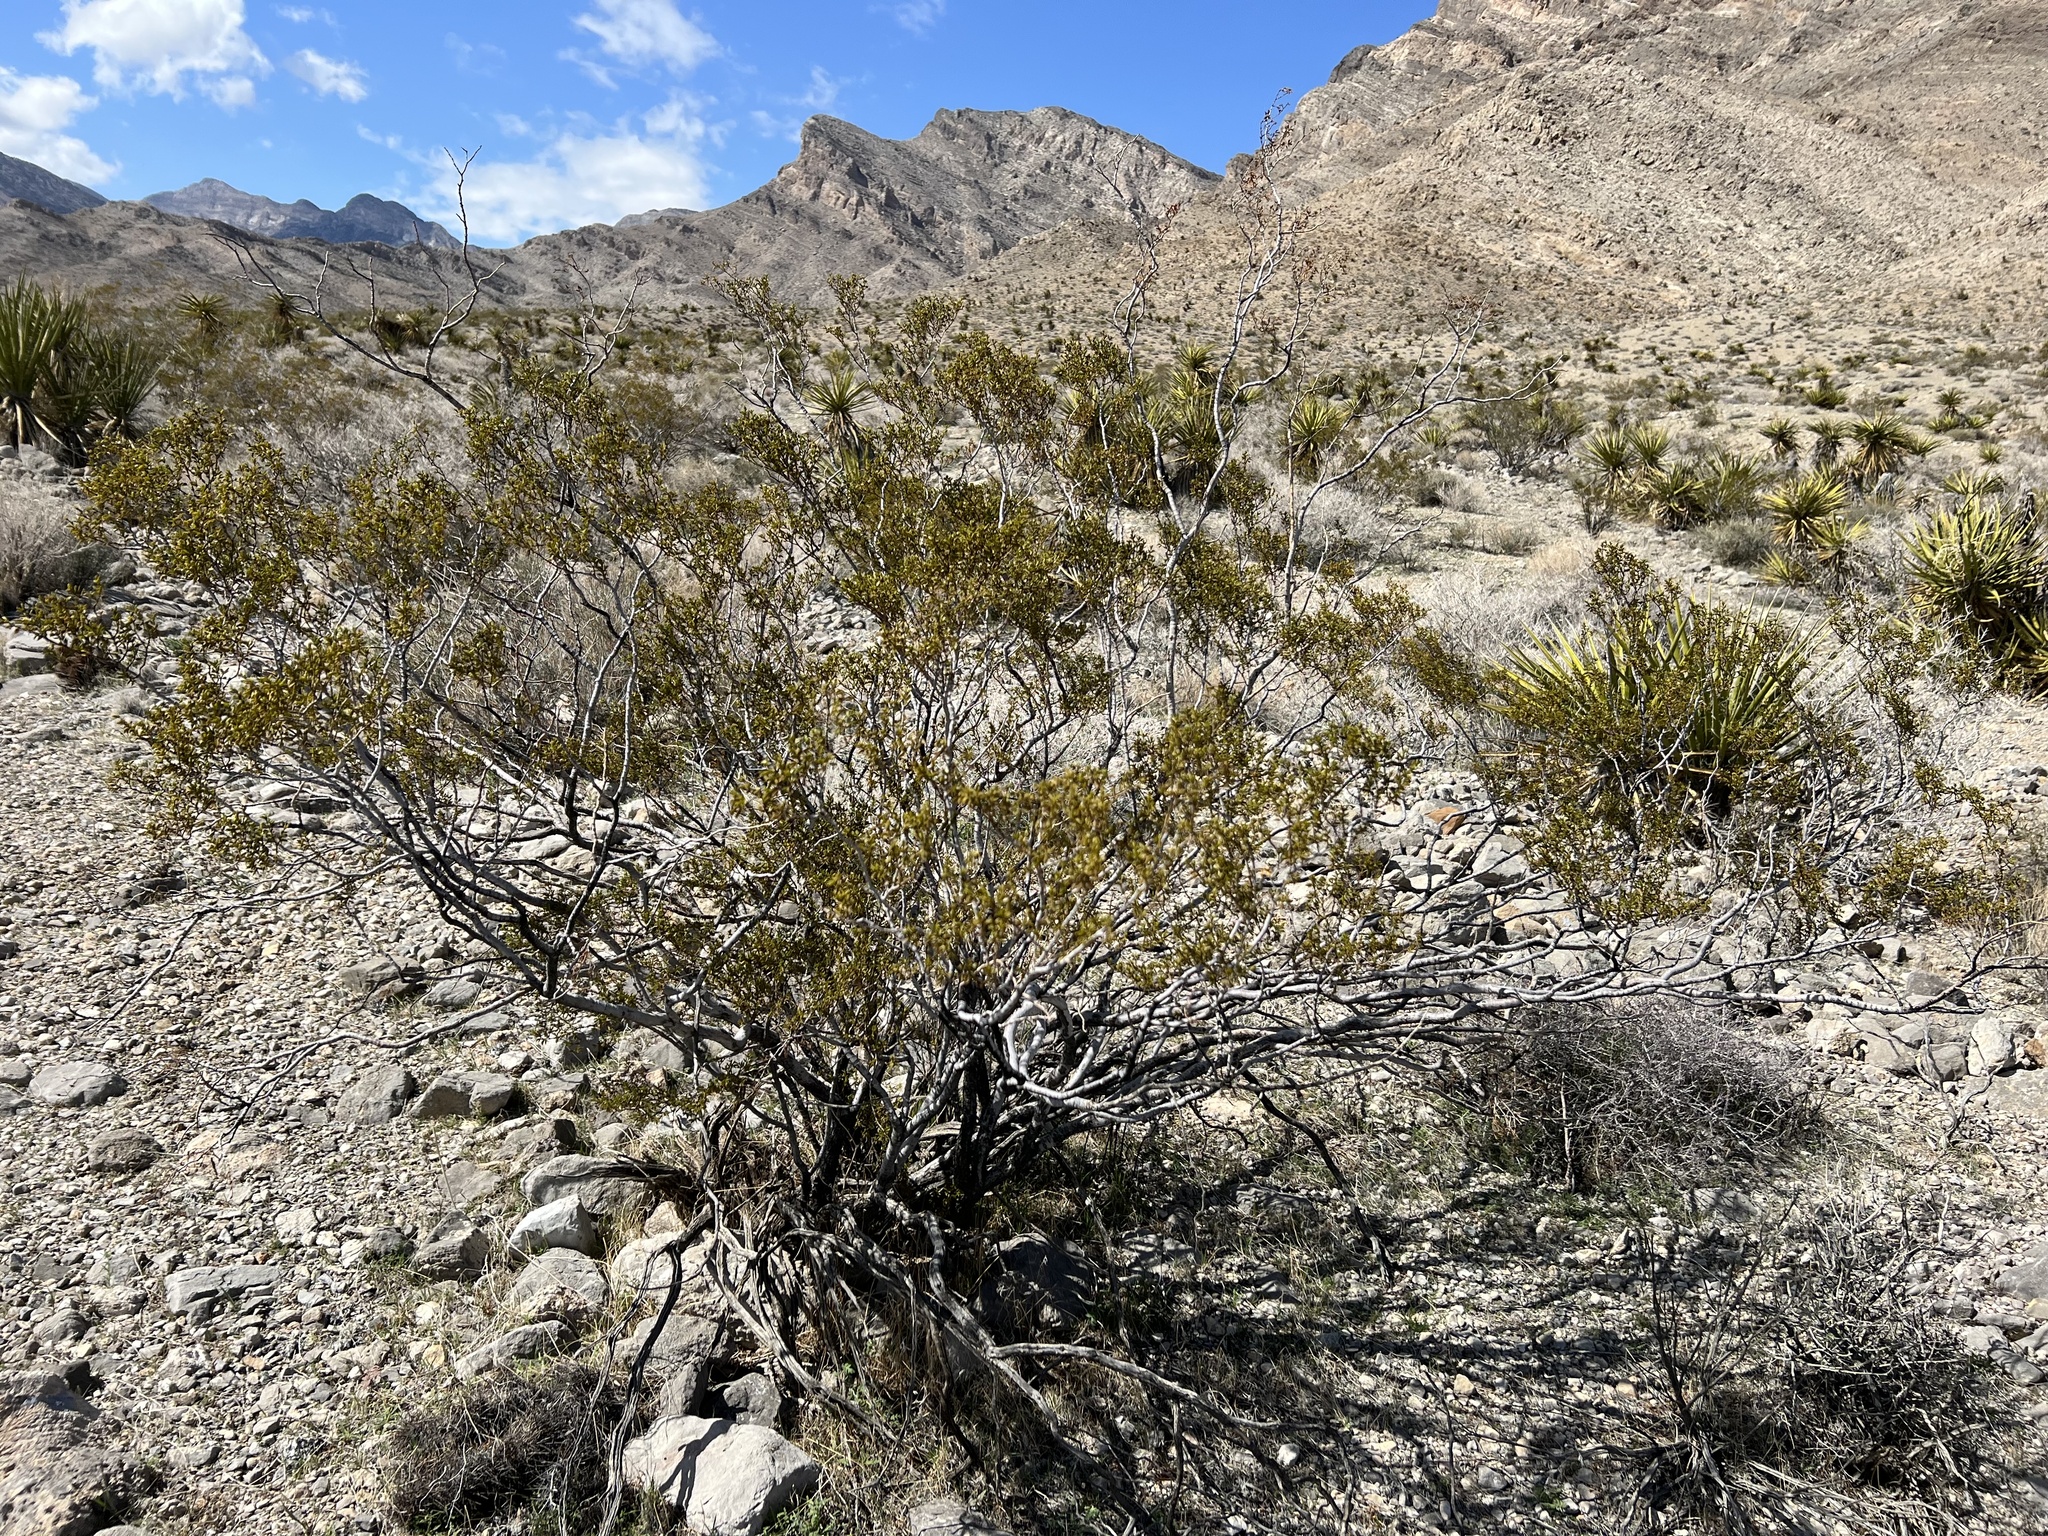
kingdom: Plantae
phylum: Tracheophyta
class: Magnoliopsida
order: Zygophyllales
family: Zygophyllaceae
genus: Larrea
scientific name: Larrea tridentata
